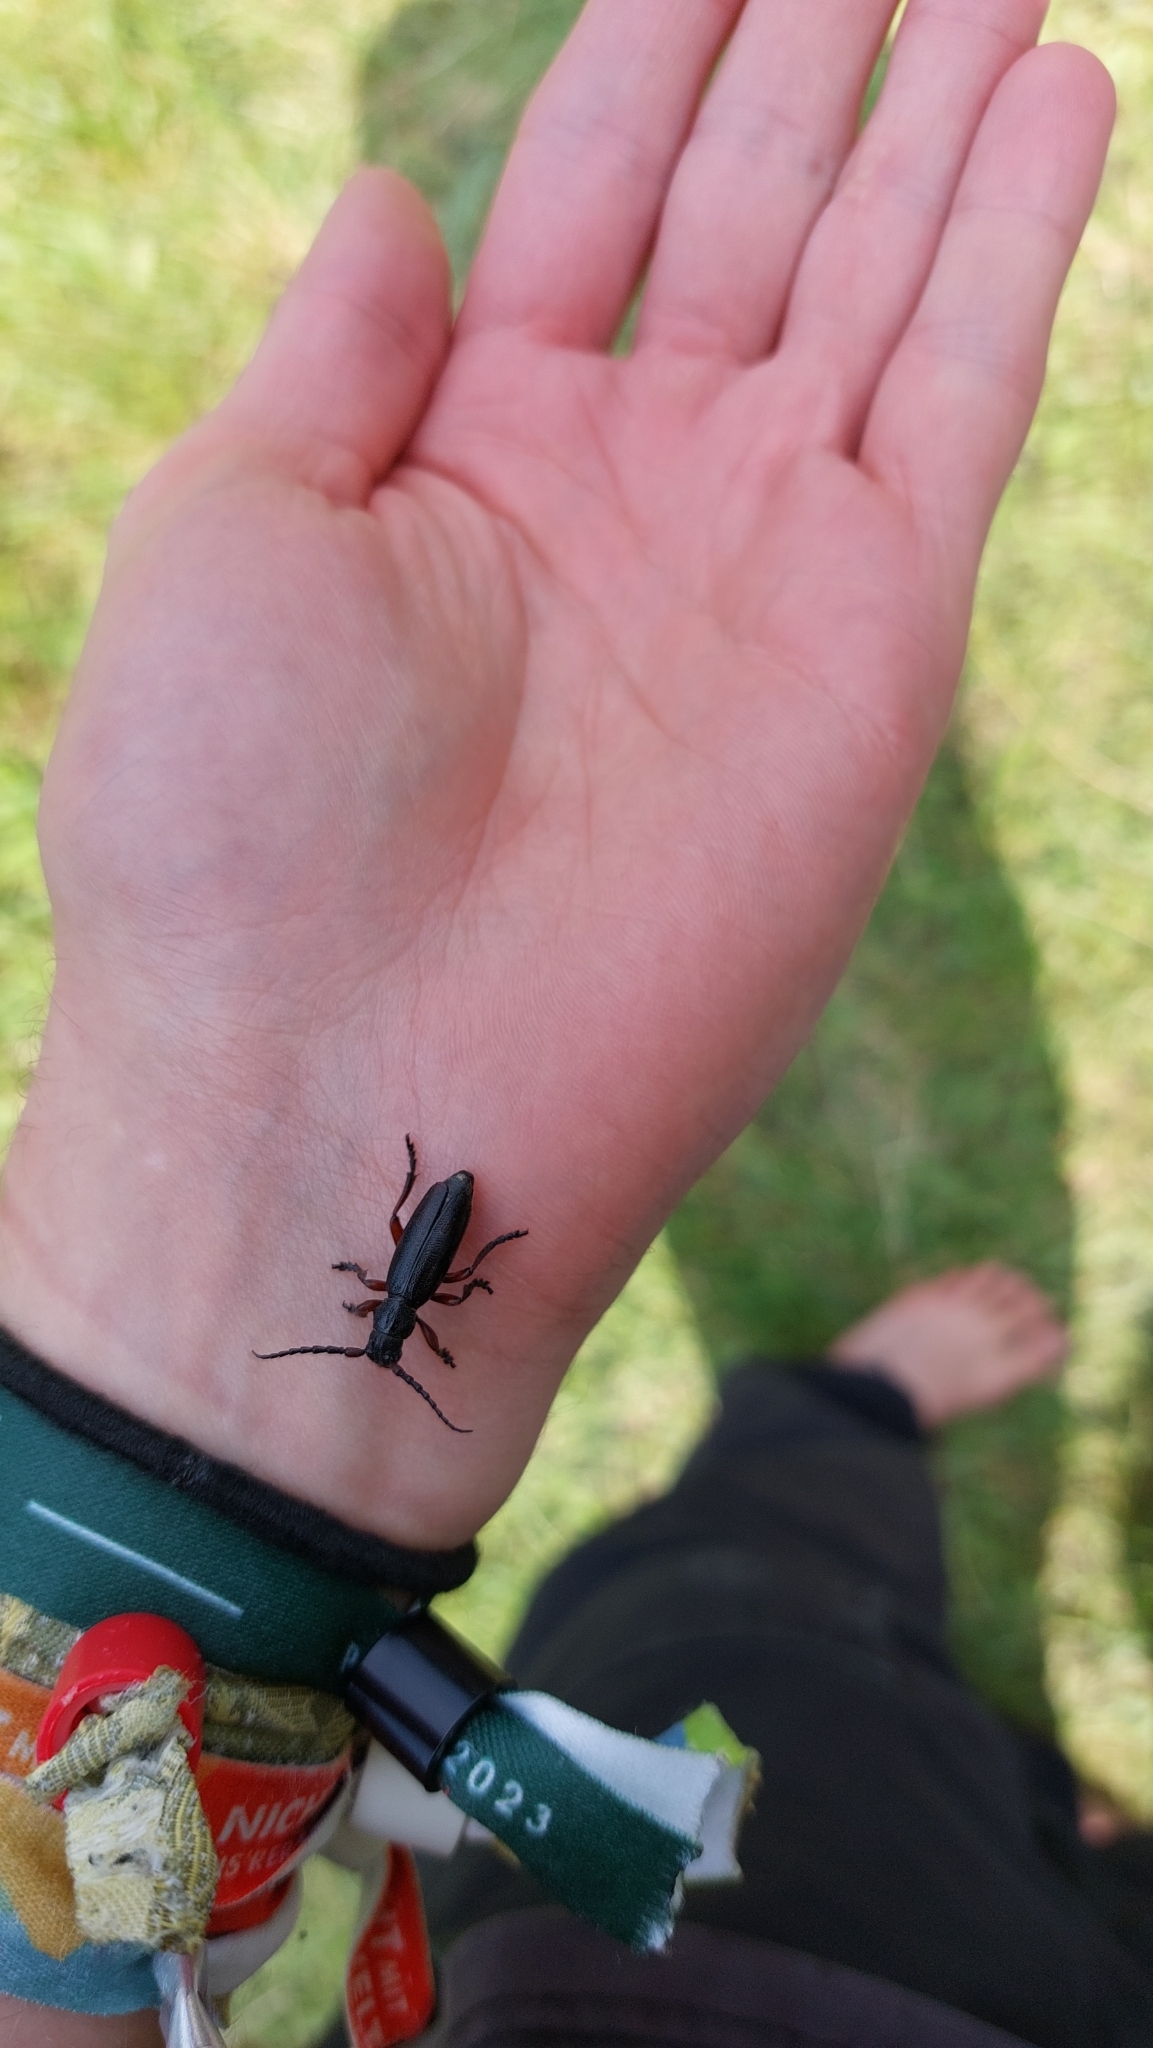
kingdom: Animalia
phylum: Arthropoda
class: Insecta
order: Coleoptera
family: Cerambycidae
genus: Dorcadion
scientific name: Dorcadion fulvum
